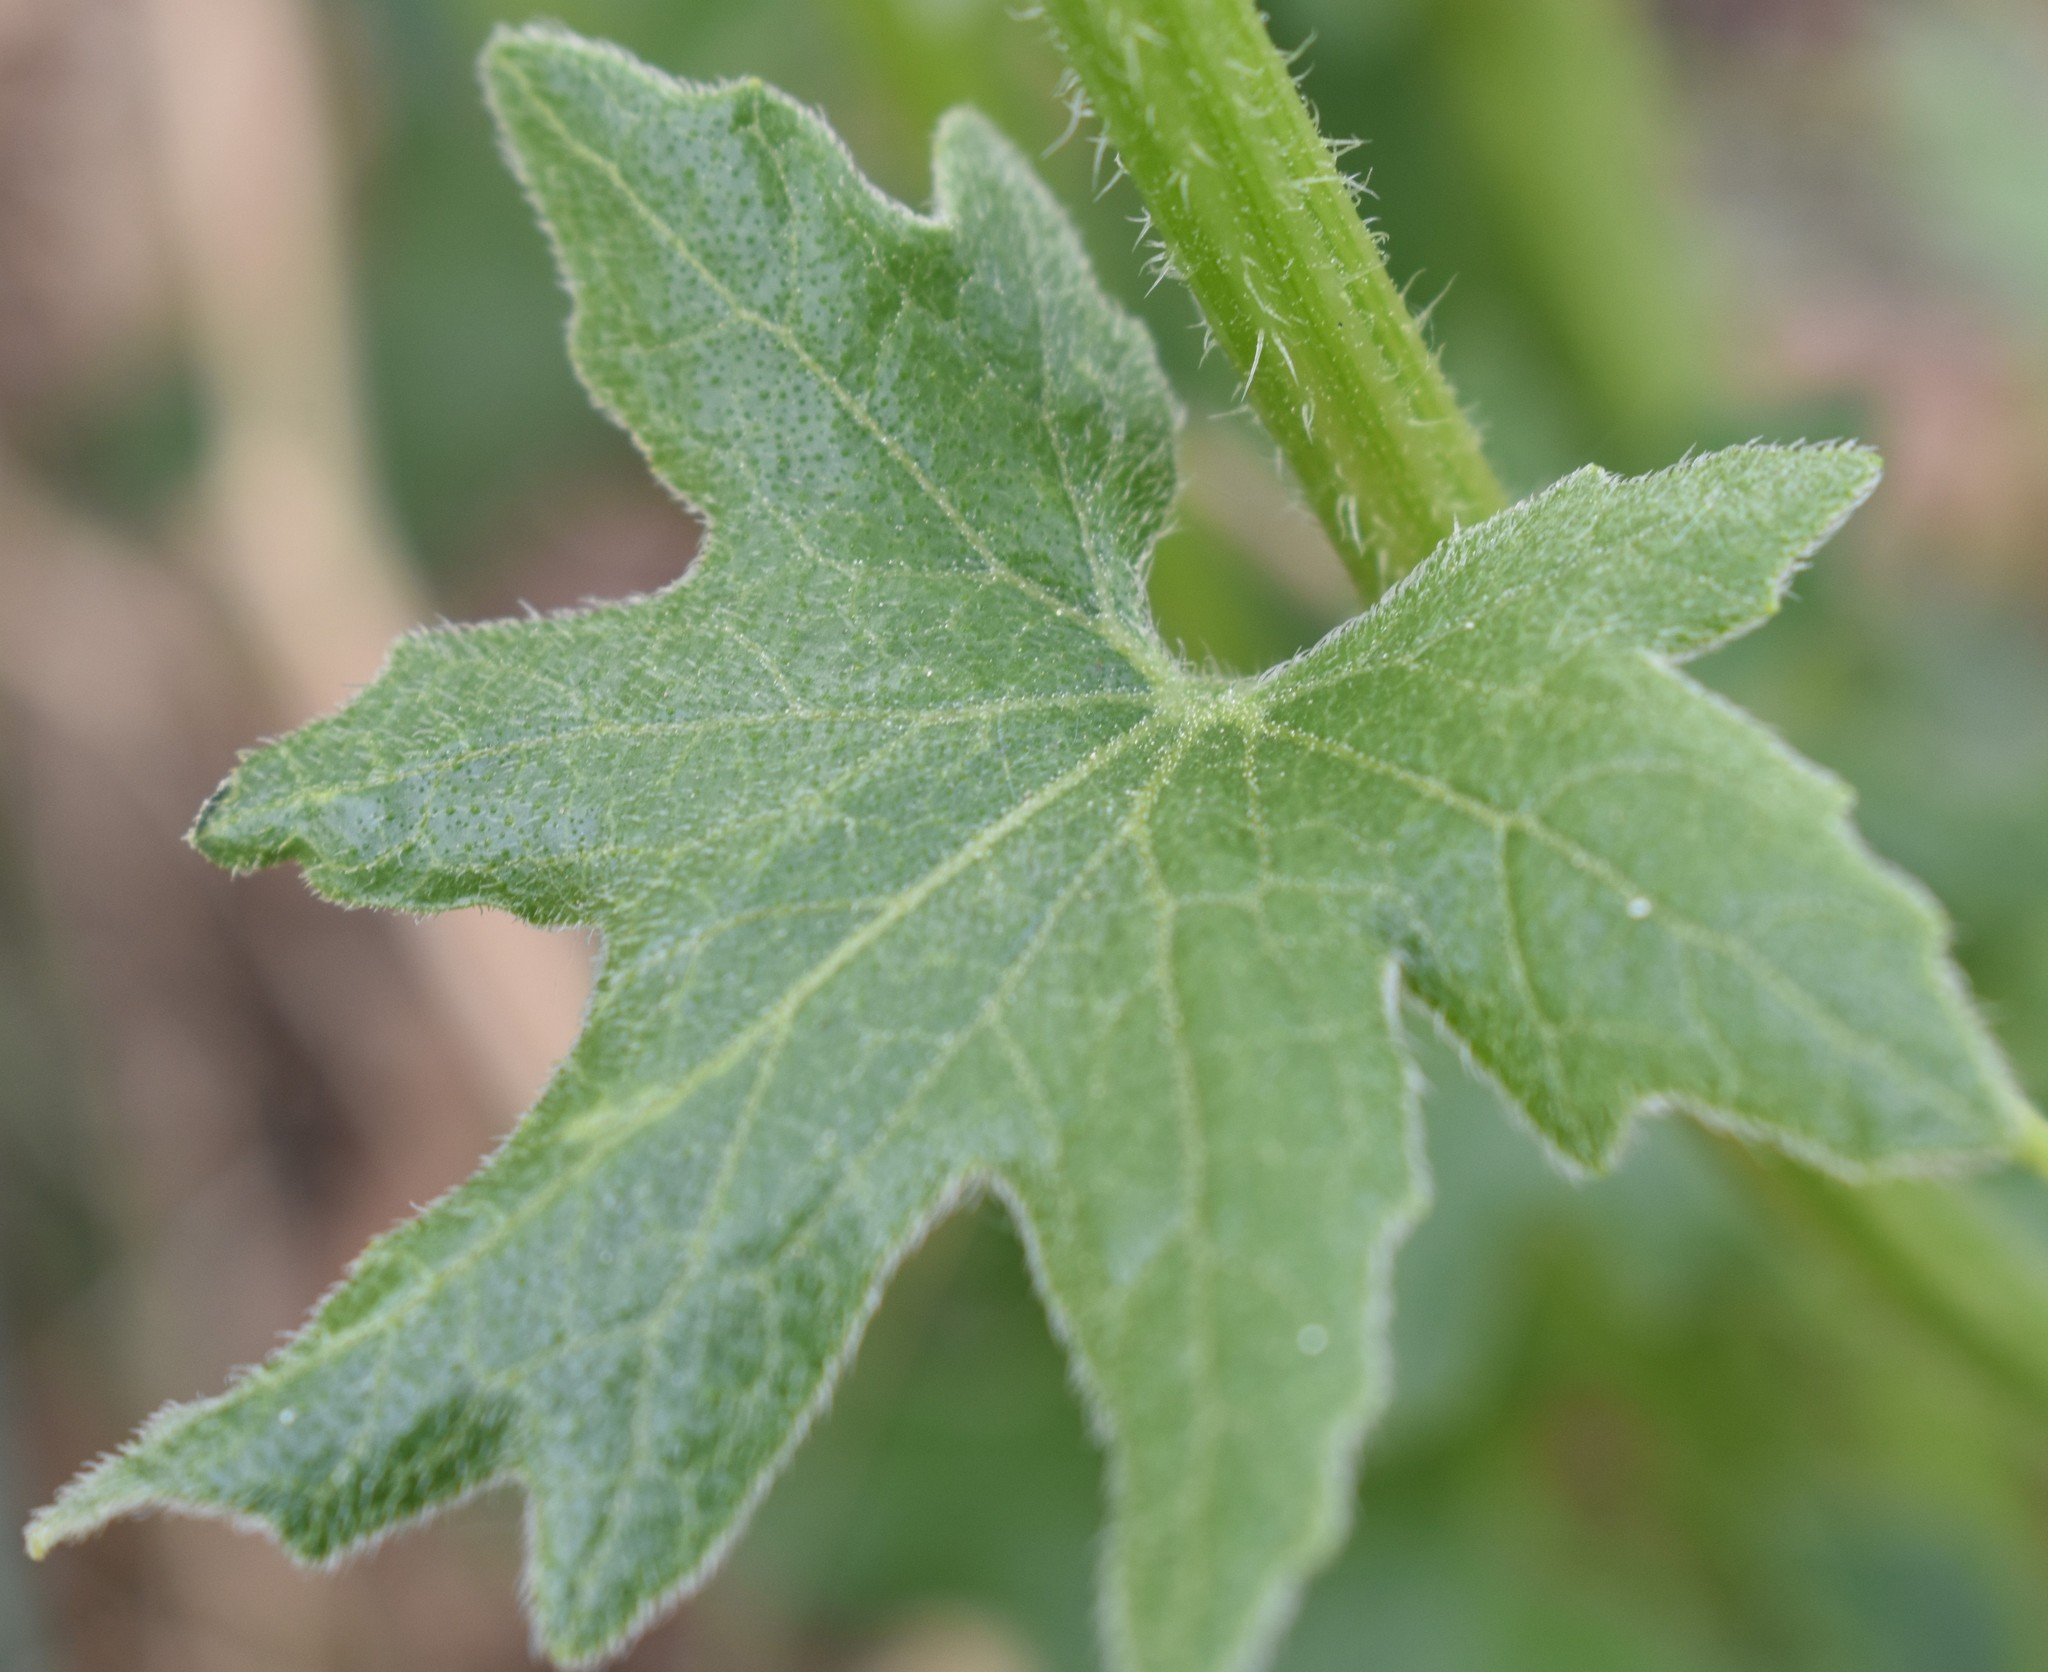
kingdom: Plantae
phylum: Tracheophyta
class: Magnoliopsida
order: Cucurbitales
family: Cucurbitaceae
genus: Bryonia
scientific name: Bryonia alba
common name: White bryony
